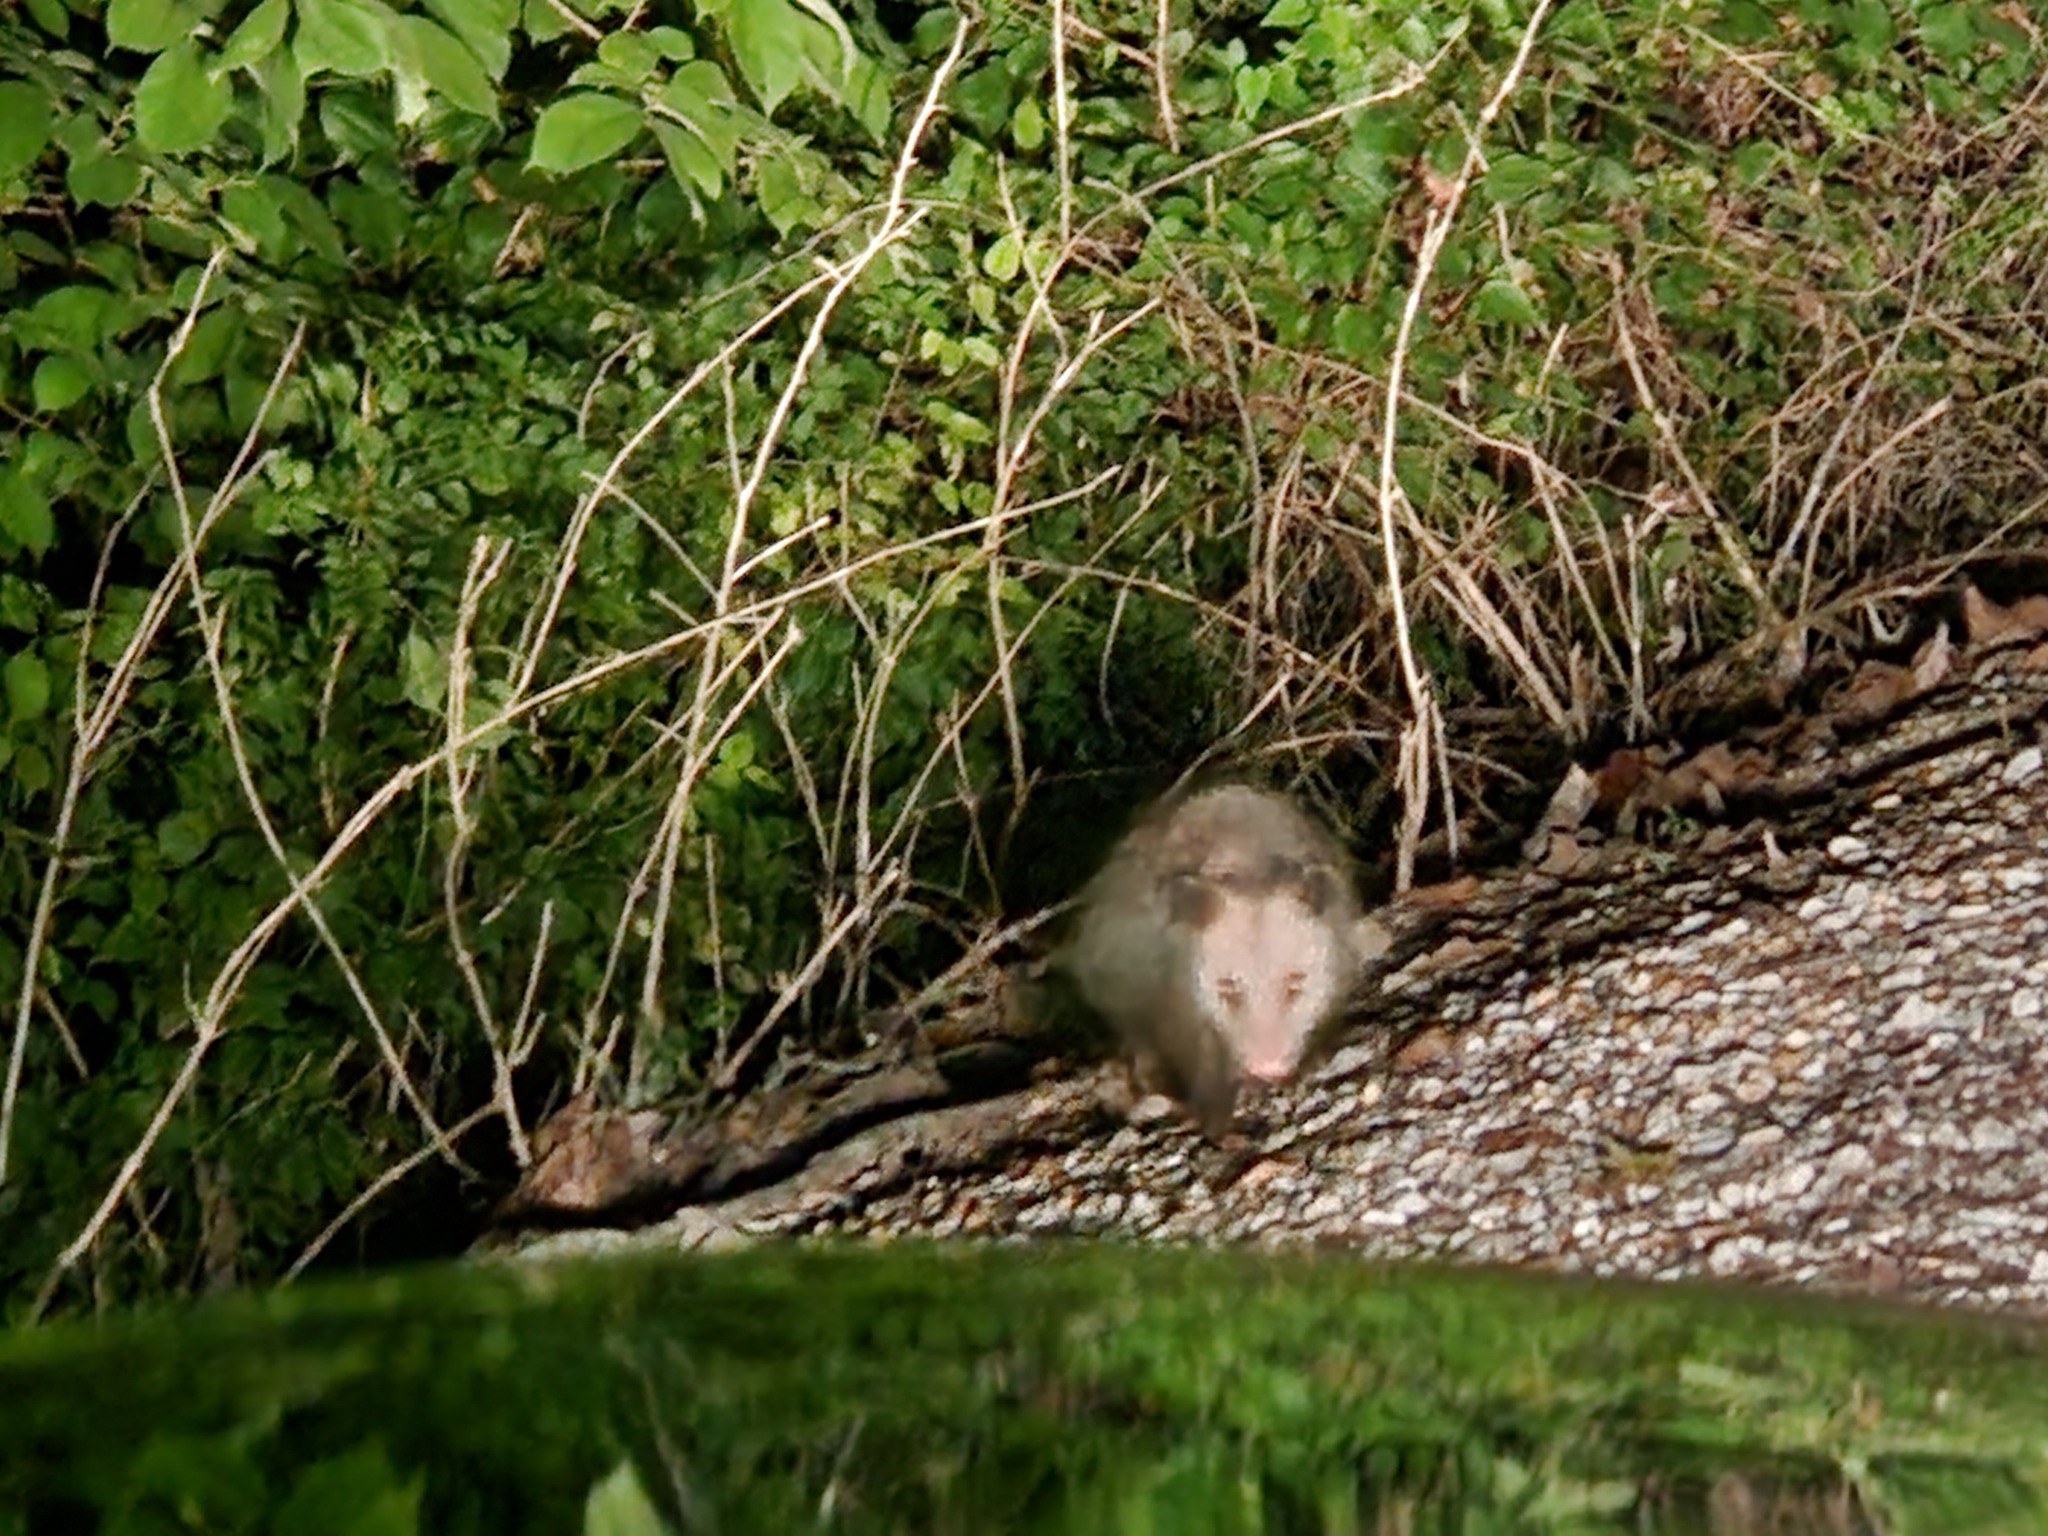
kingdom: Animalia
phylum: Chordata
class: Mammalia
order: Didelphimorphia
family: Didelphidae
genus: Didelphis
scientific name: Didelphis virginiana
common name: Virginia opossum
